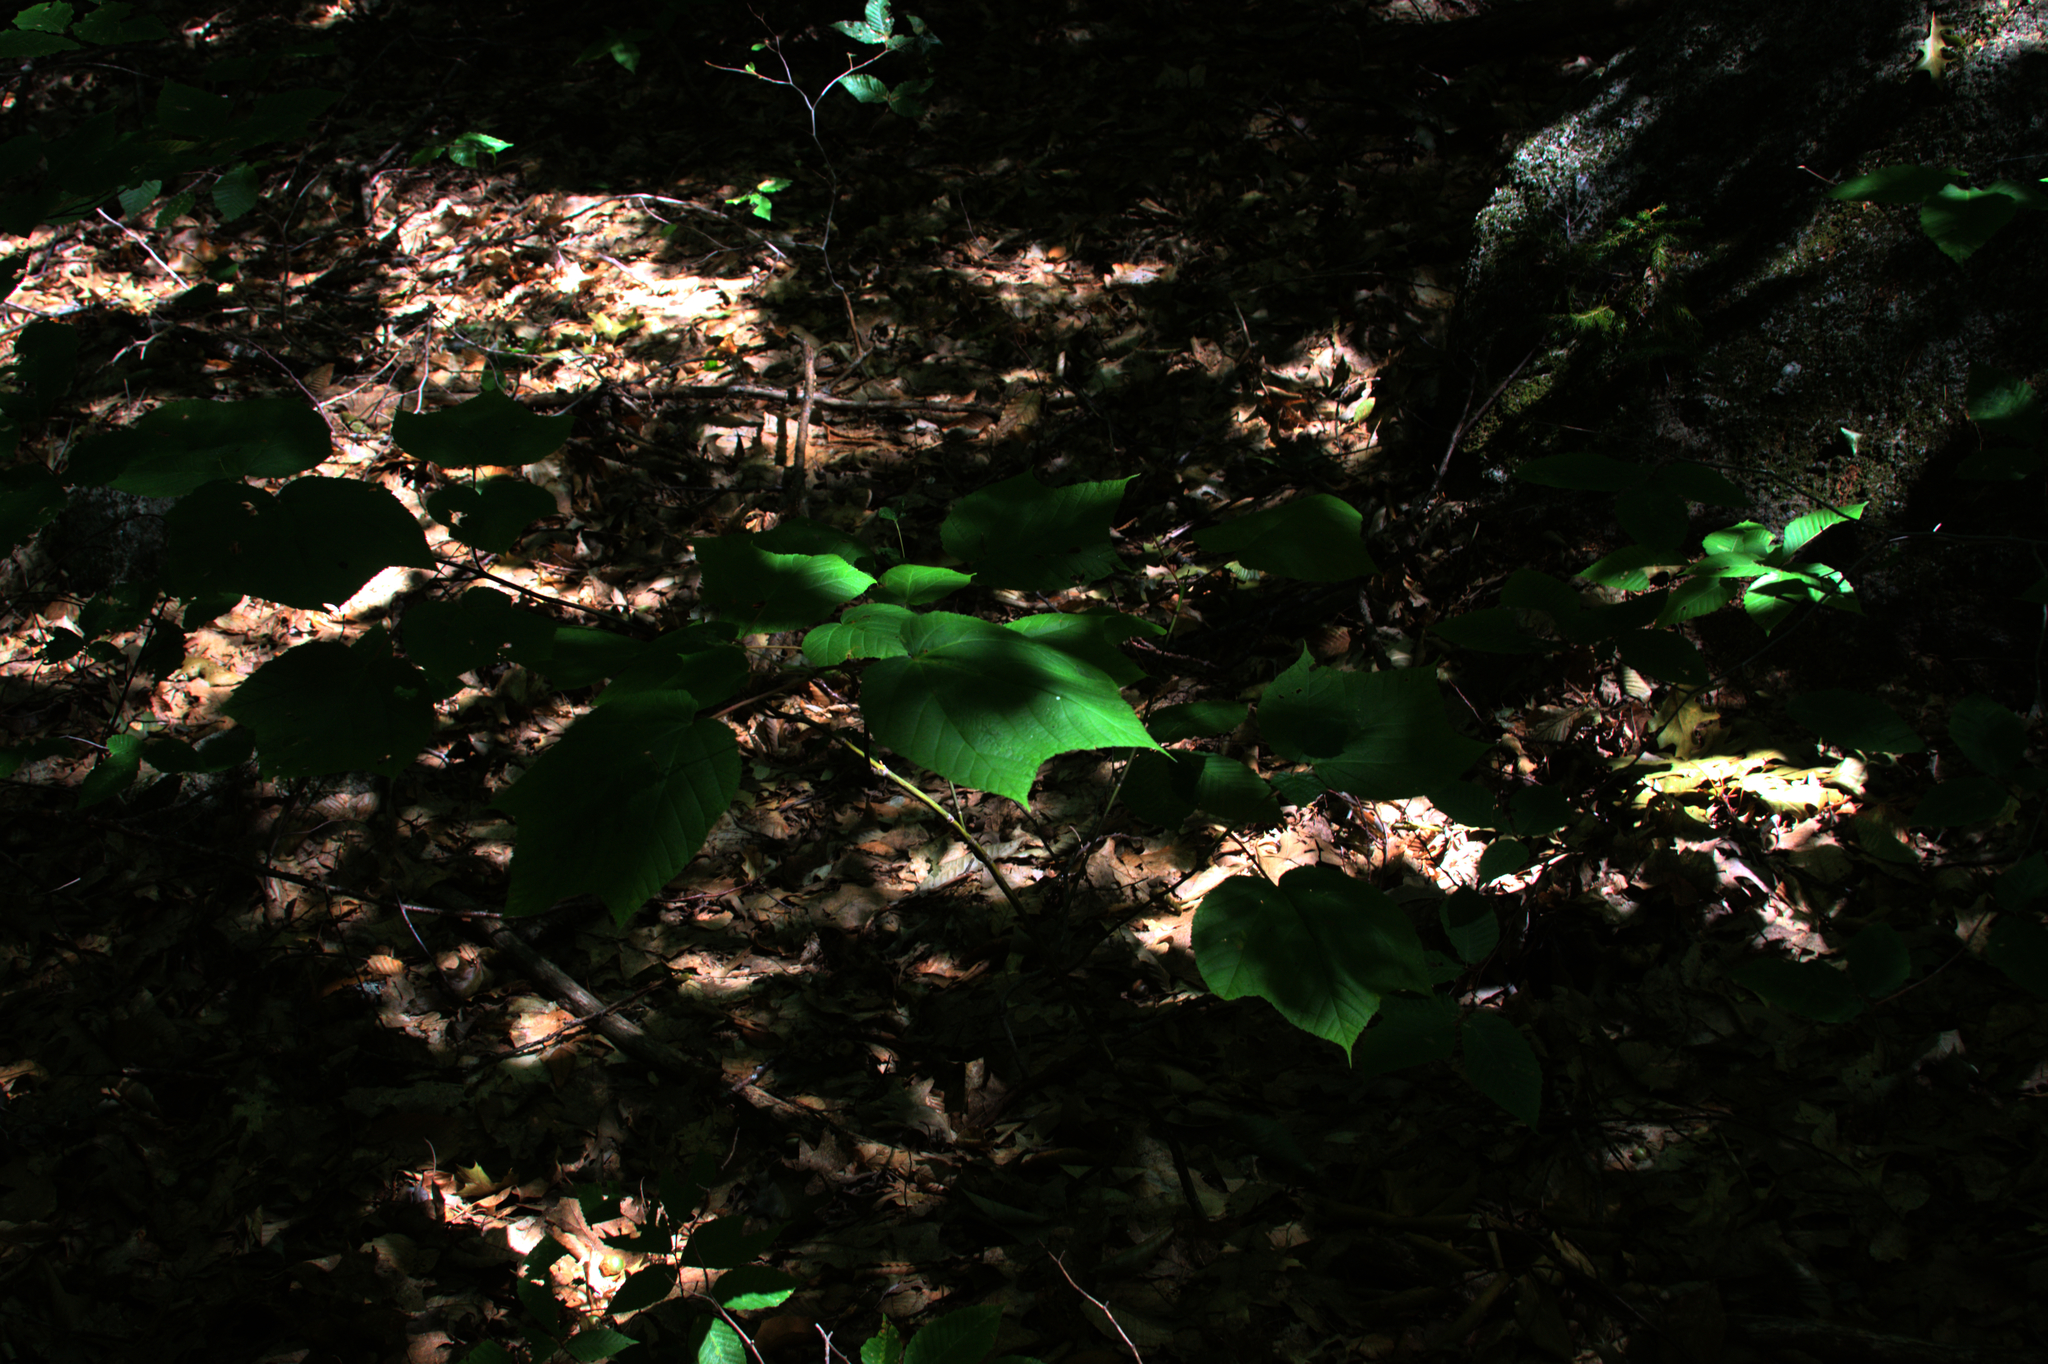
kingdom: Plantae
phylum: Tracheophyta
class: Magnoliopsida
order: Sapindales
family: Sapindaceae
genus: Acer
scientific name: Acer pensylvanicum
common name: Moosewood
